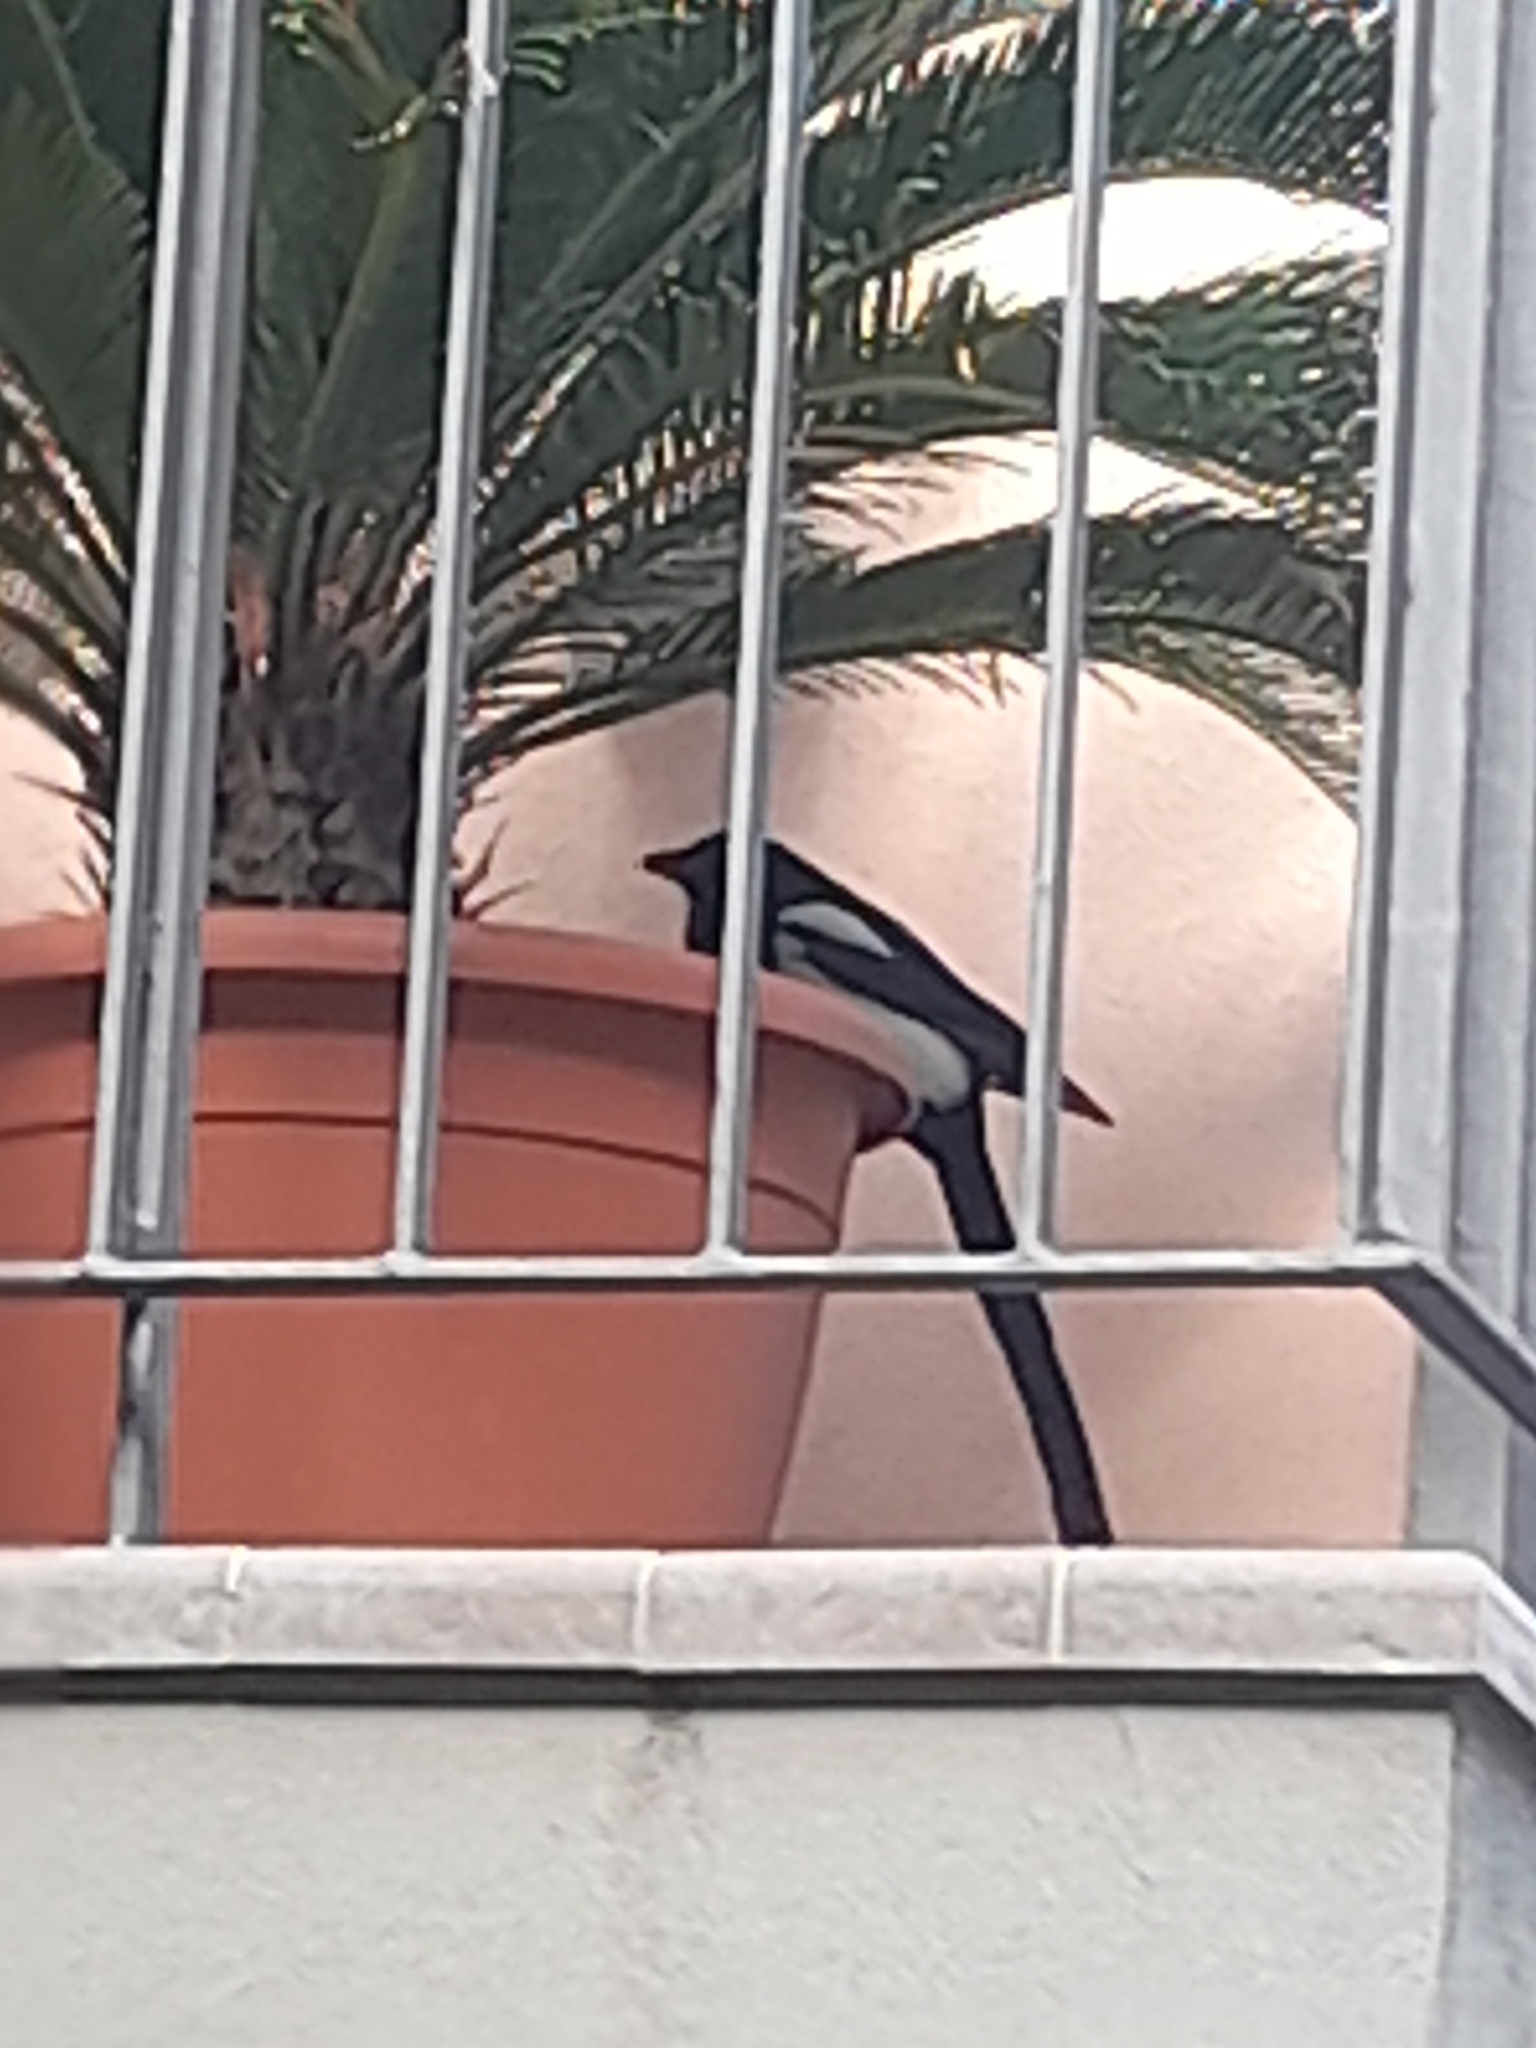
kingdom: Animalia
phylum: Chordata
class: Aves
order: Passeriformes
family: Corvidae
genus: Pica
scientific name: Pica pica
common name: Eurasian magpie
